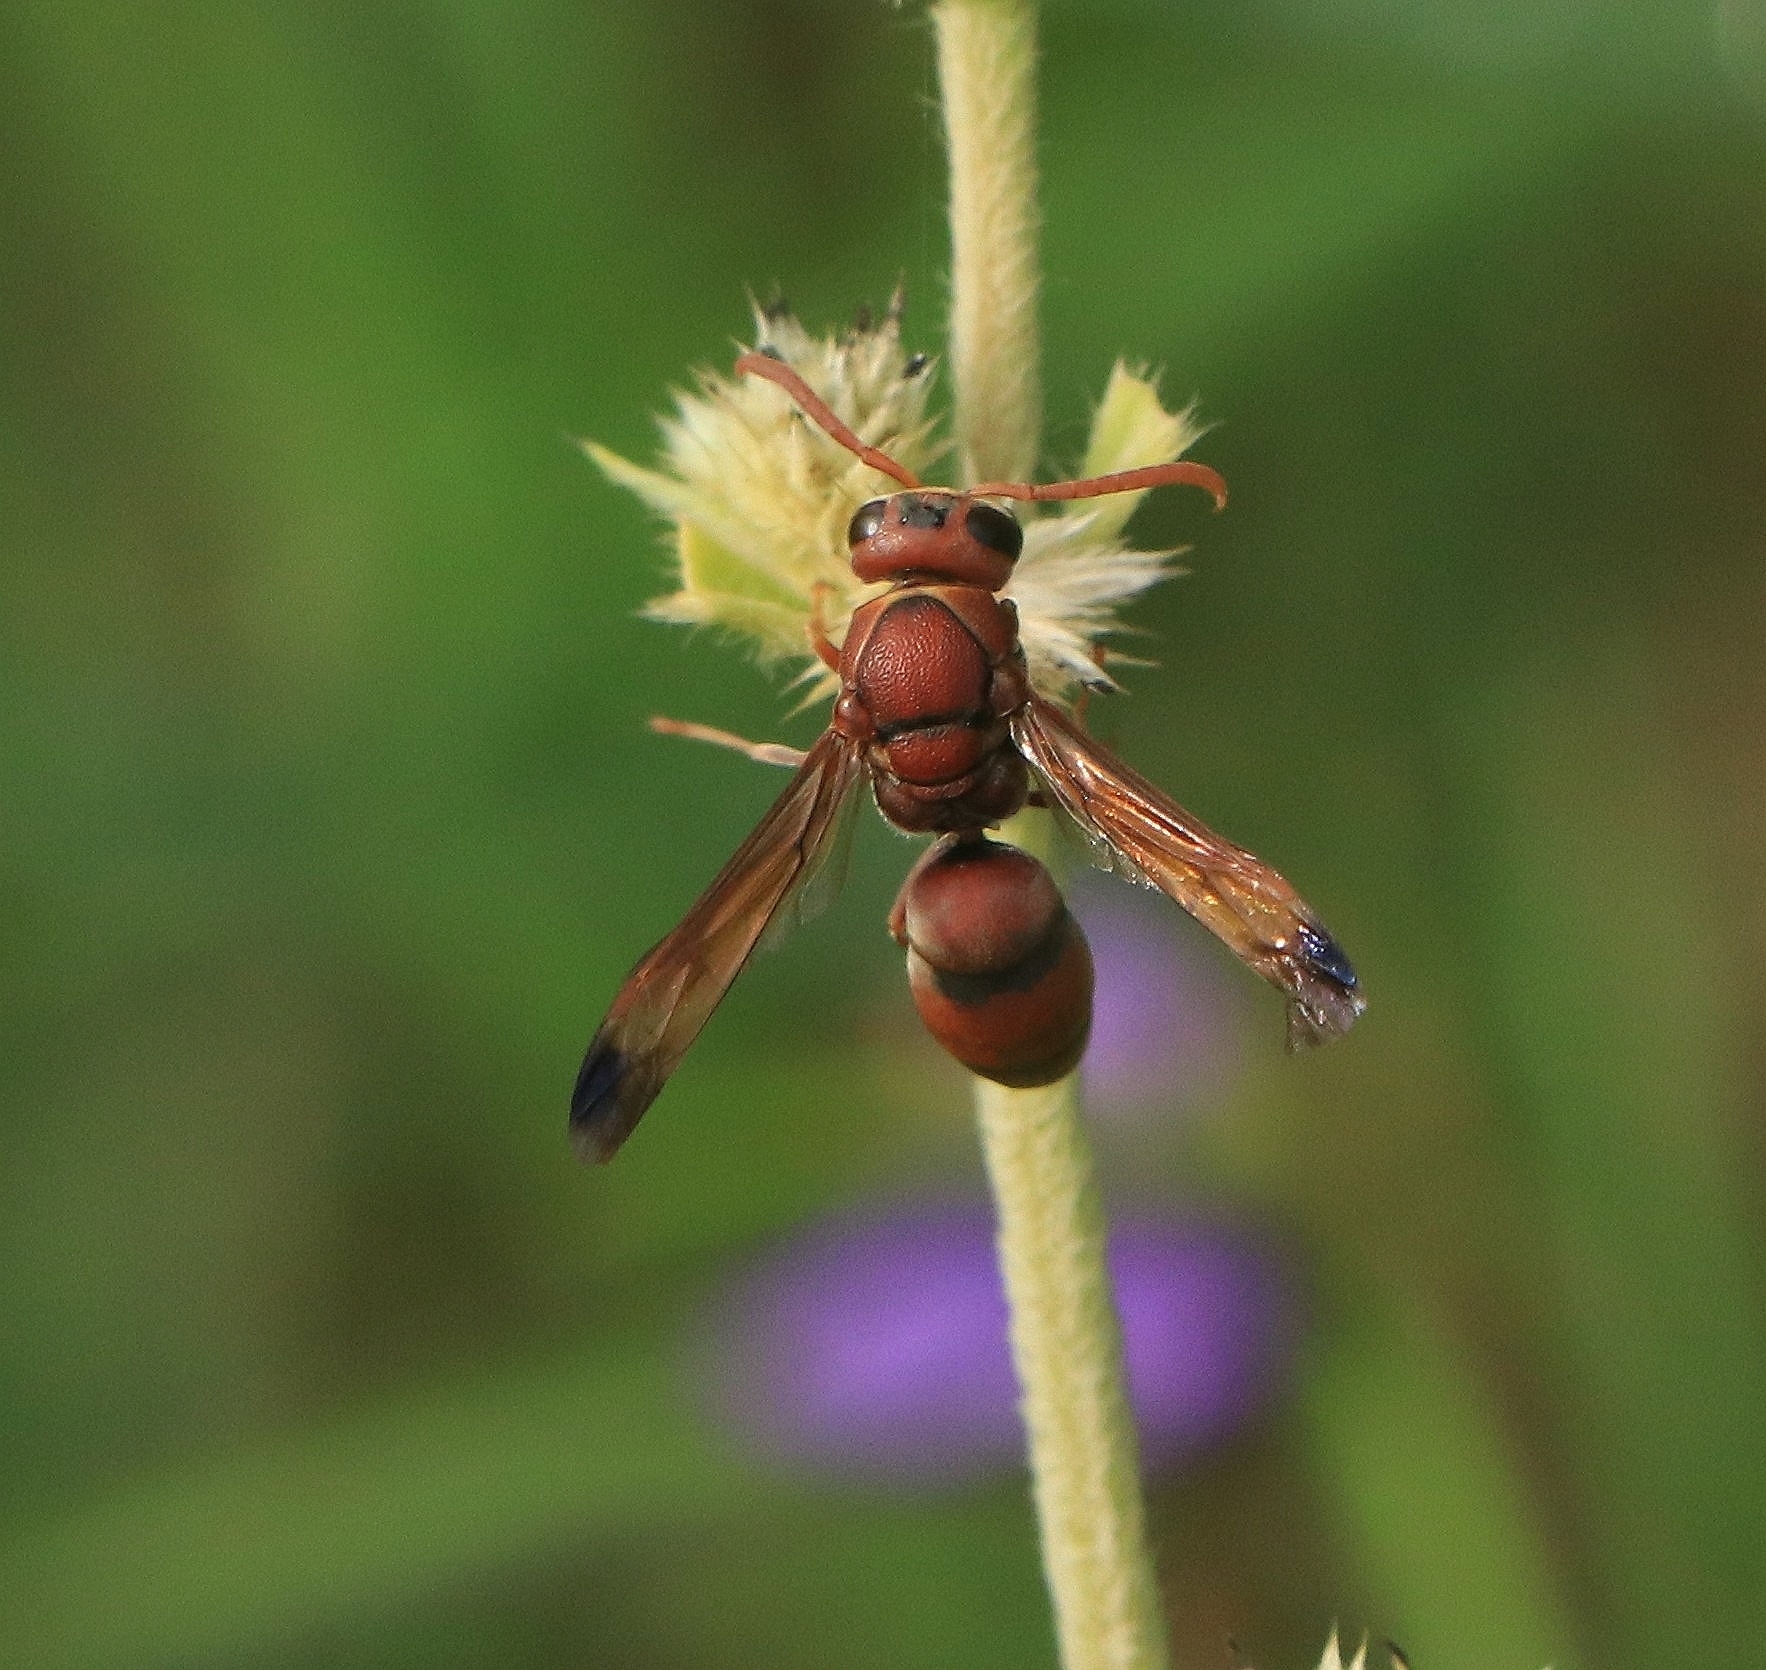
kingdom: Animalia
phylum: Arthropoda
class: Insecta
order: Hymenoptera
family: Eumenidae
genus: Antodynerus
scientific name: Antodynerus limbatus
